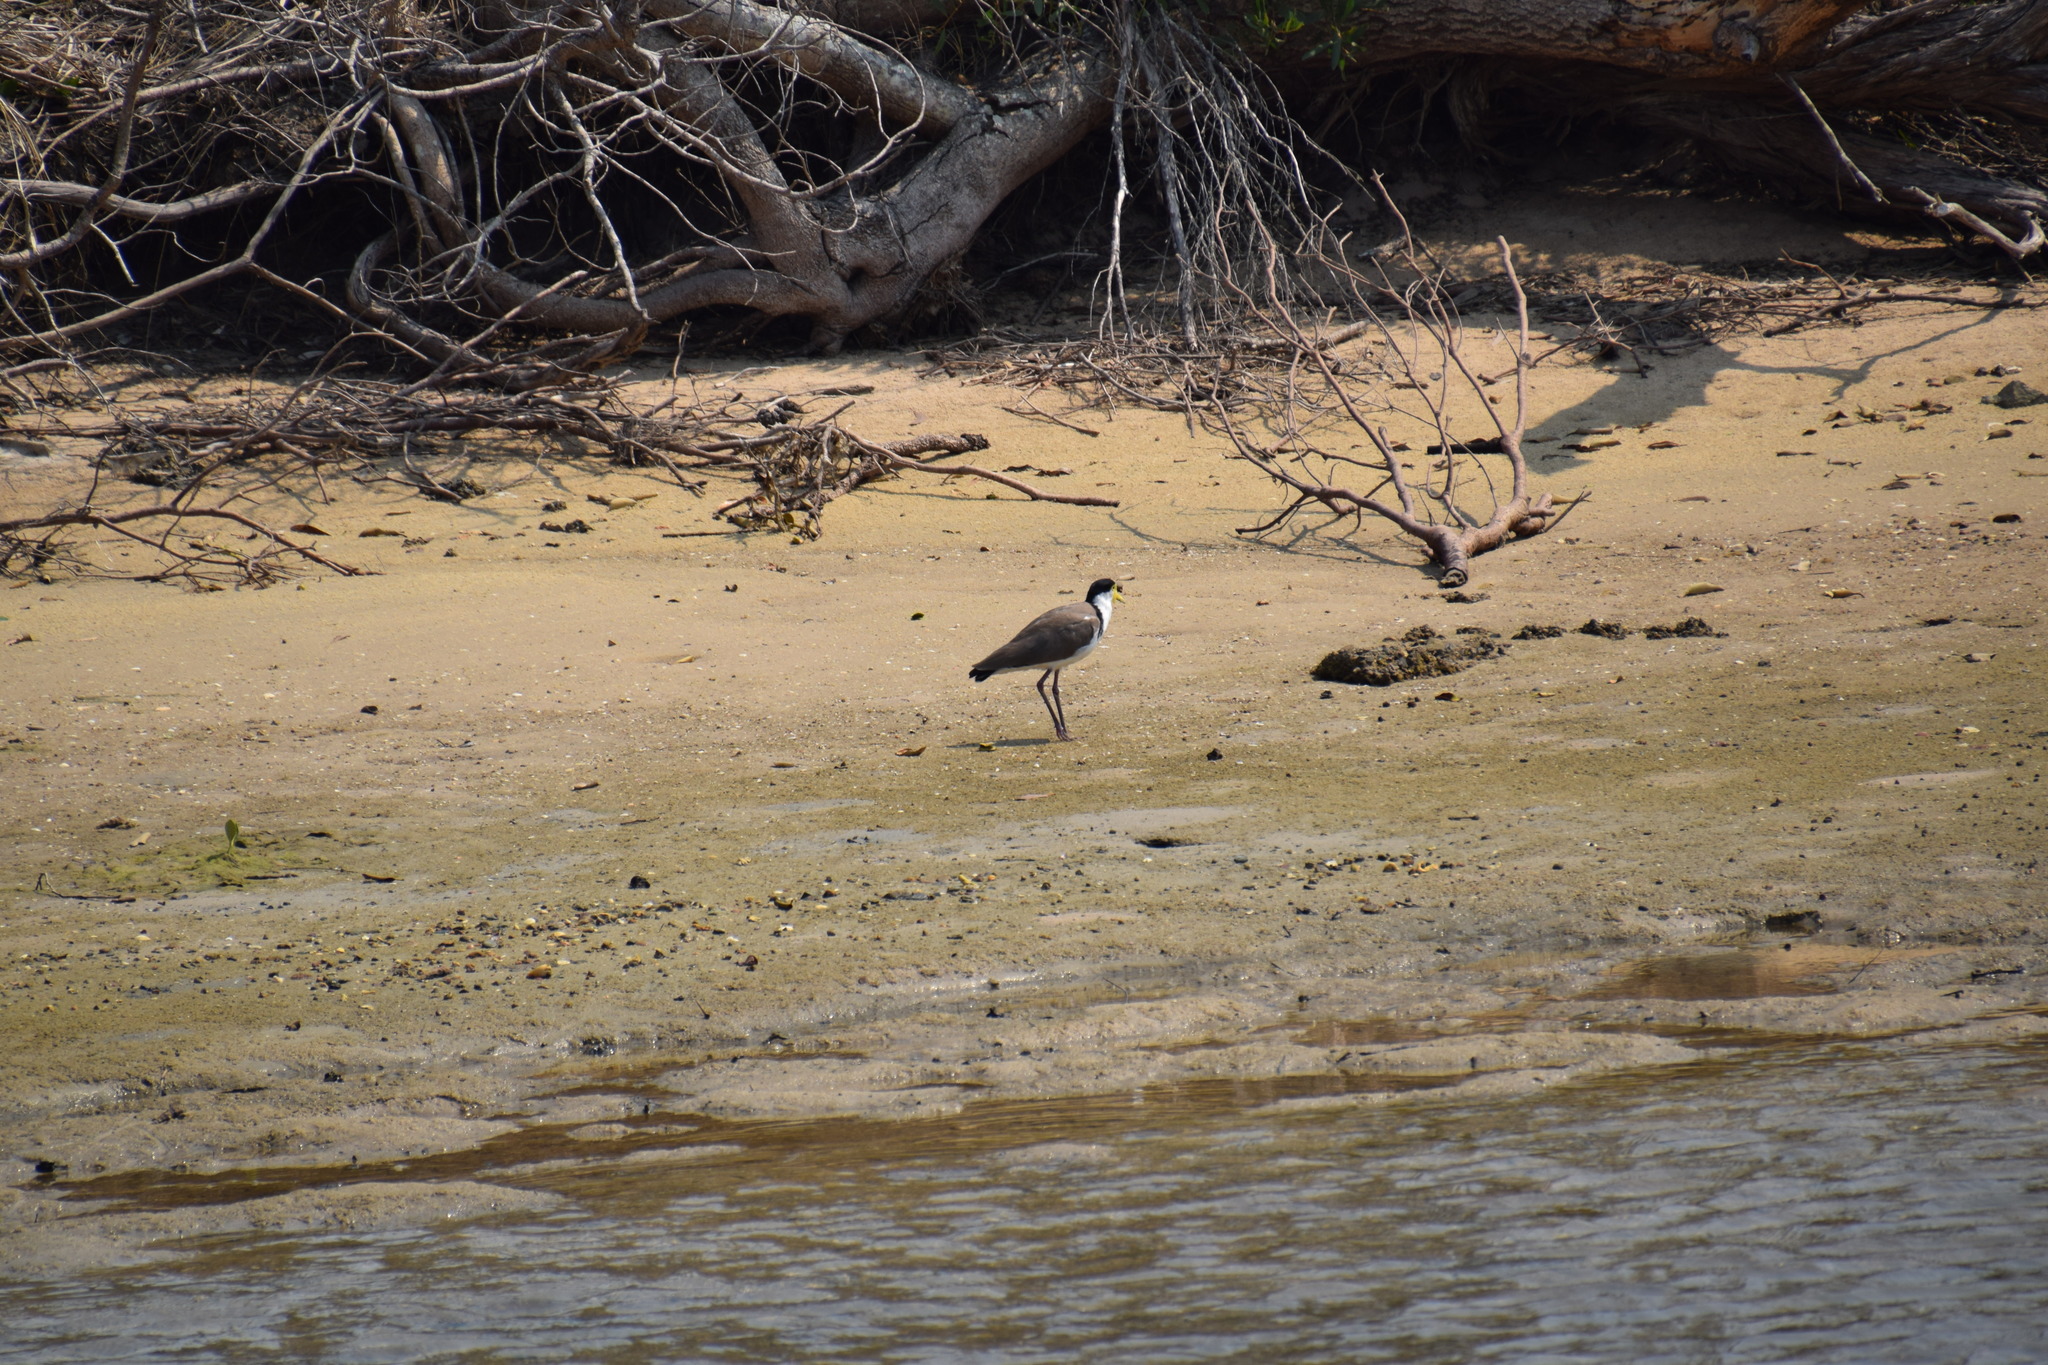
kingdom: Animalia
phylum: Chordata
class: Aves
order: Charadriiformes
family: Charadriidae
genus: Vanellus
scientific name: Vanellus miles
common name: Masked lapwing
